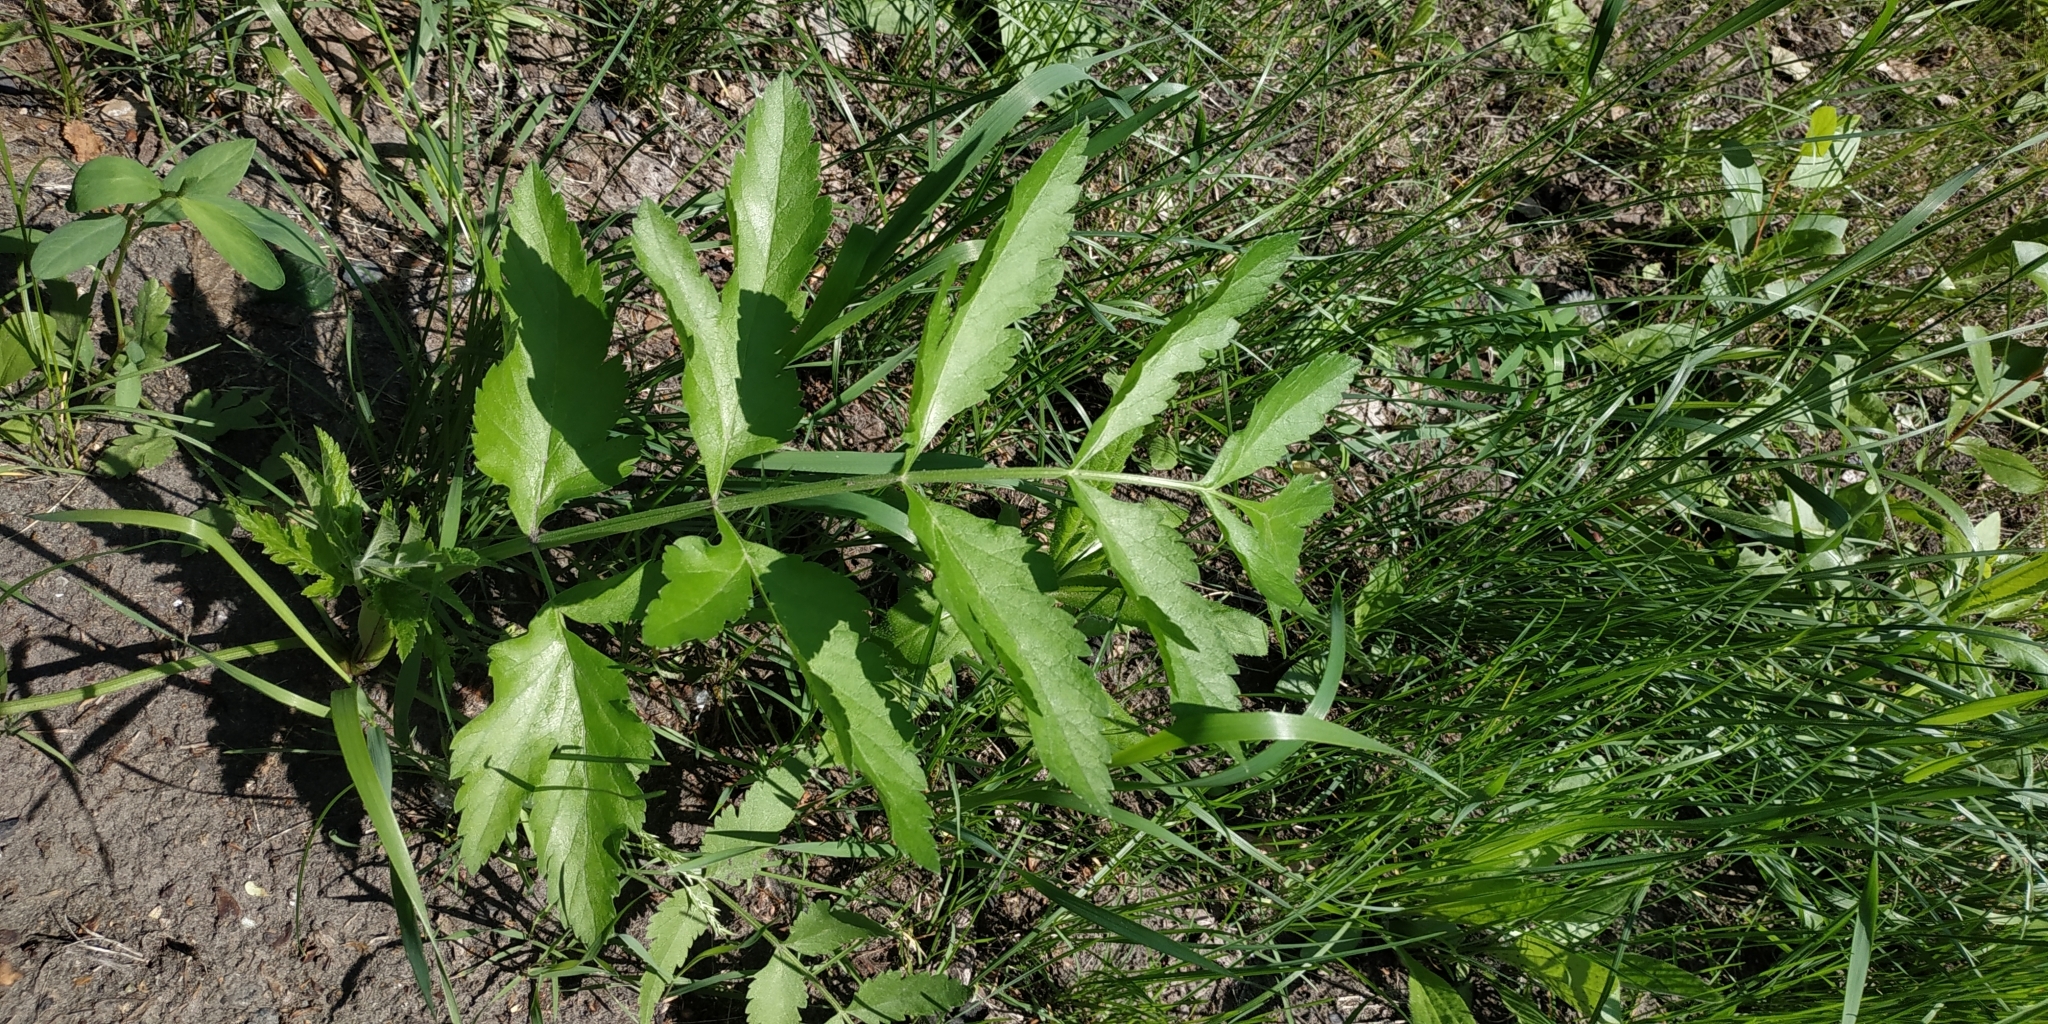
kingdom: Plantae
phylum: Tracheophyta
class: Magnoliopsida
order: Apiales
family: Apiaceae
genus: Pastinaca
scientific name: Pastinaca sativa
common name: Wild parsnip
